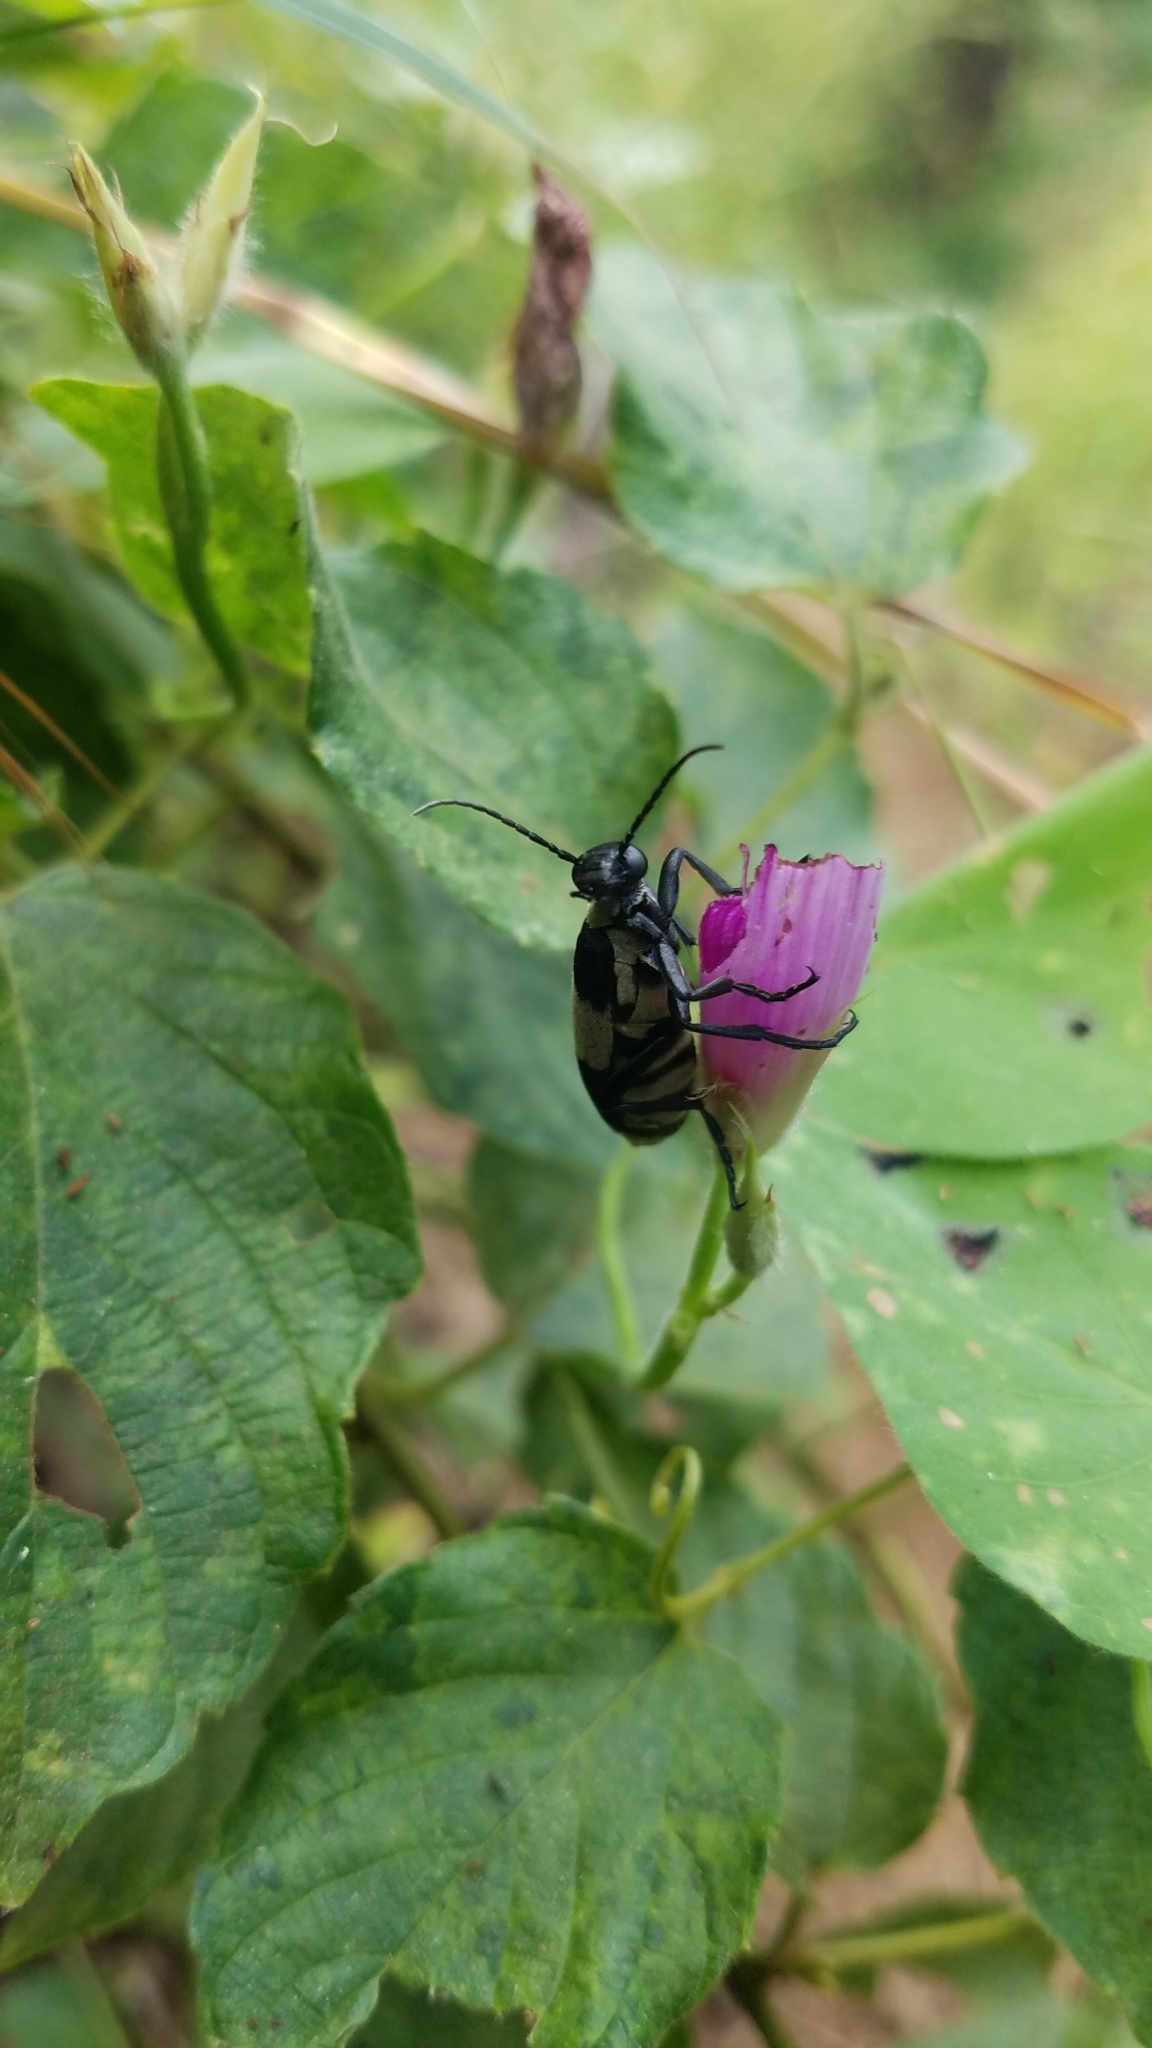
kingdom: Animalia
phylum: Arthropoda
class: Insecta
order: Coleoptera
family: Meloidae
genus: Epicauta
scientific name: Epicauta haroldi
